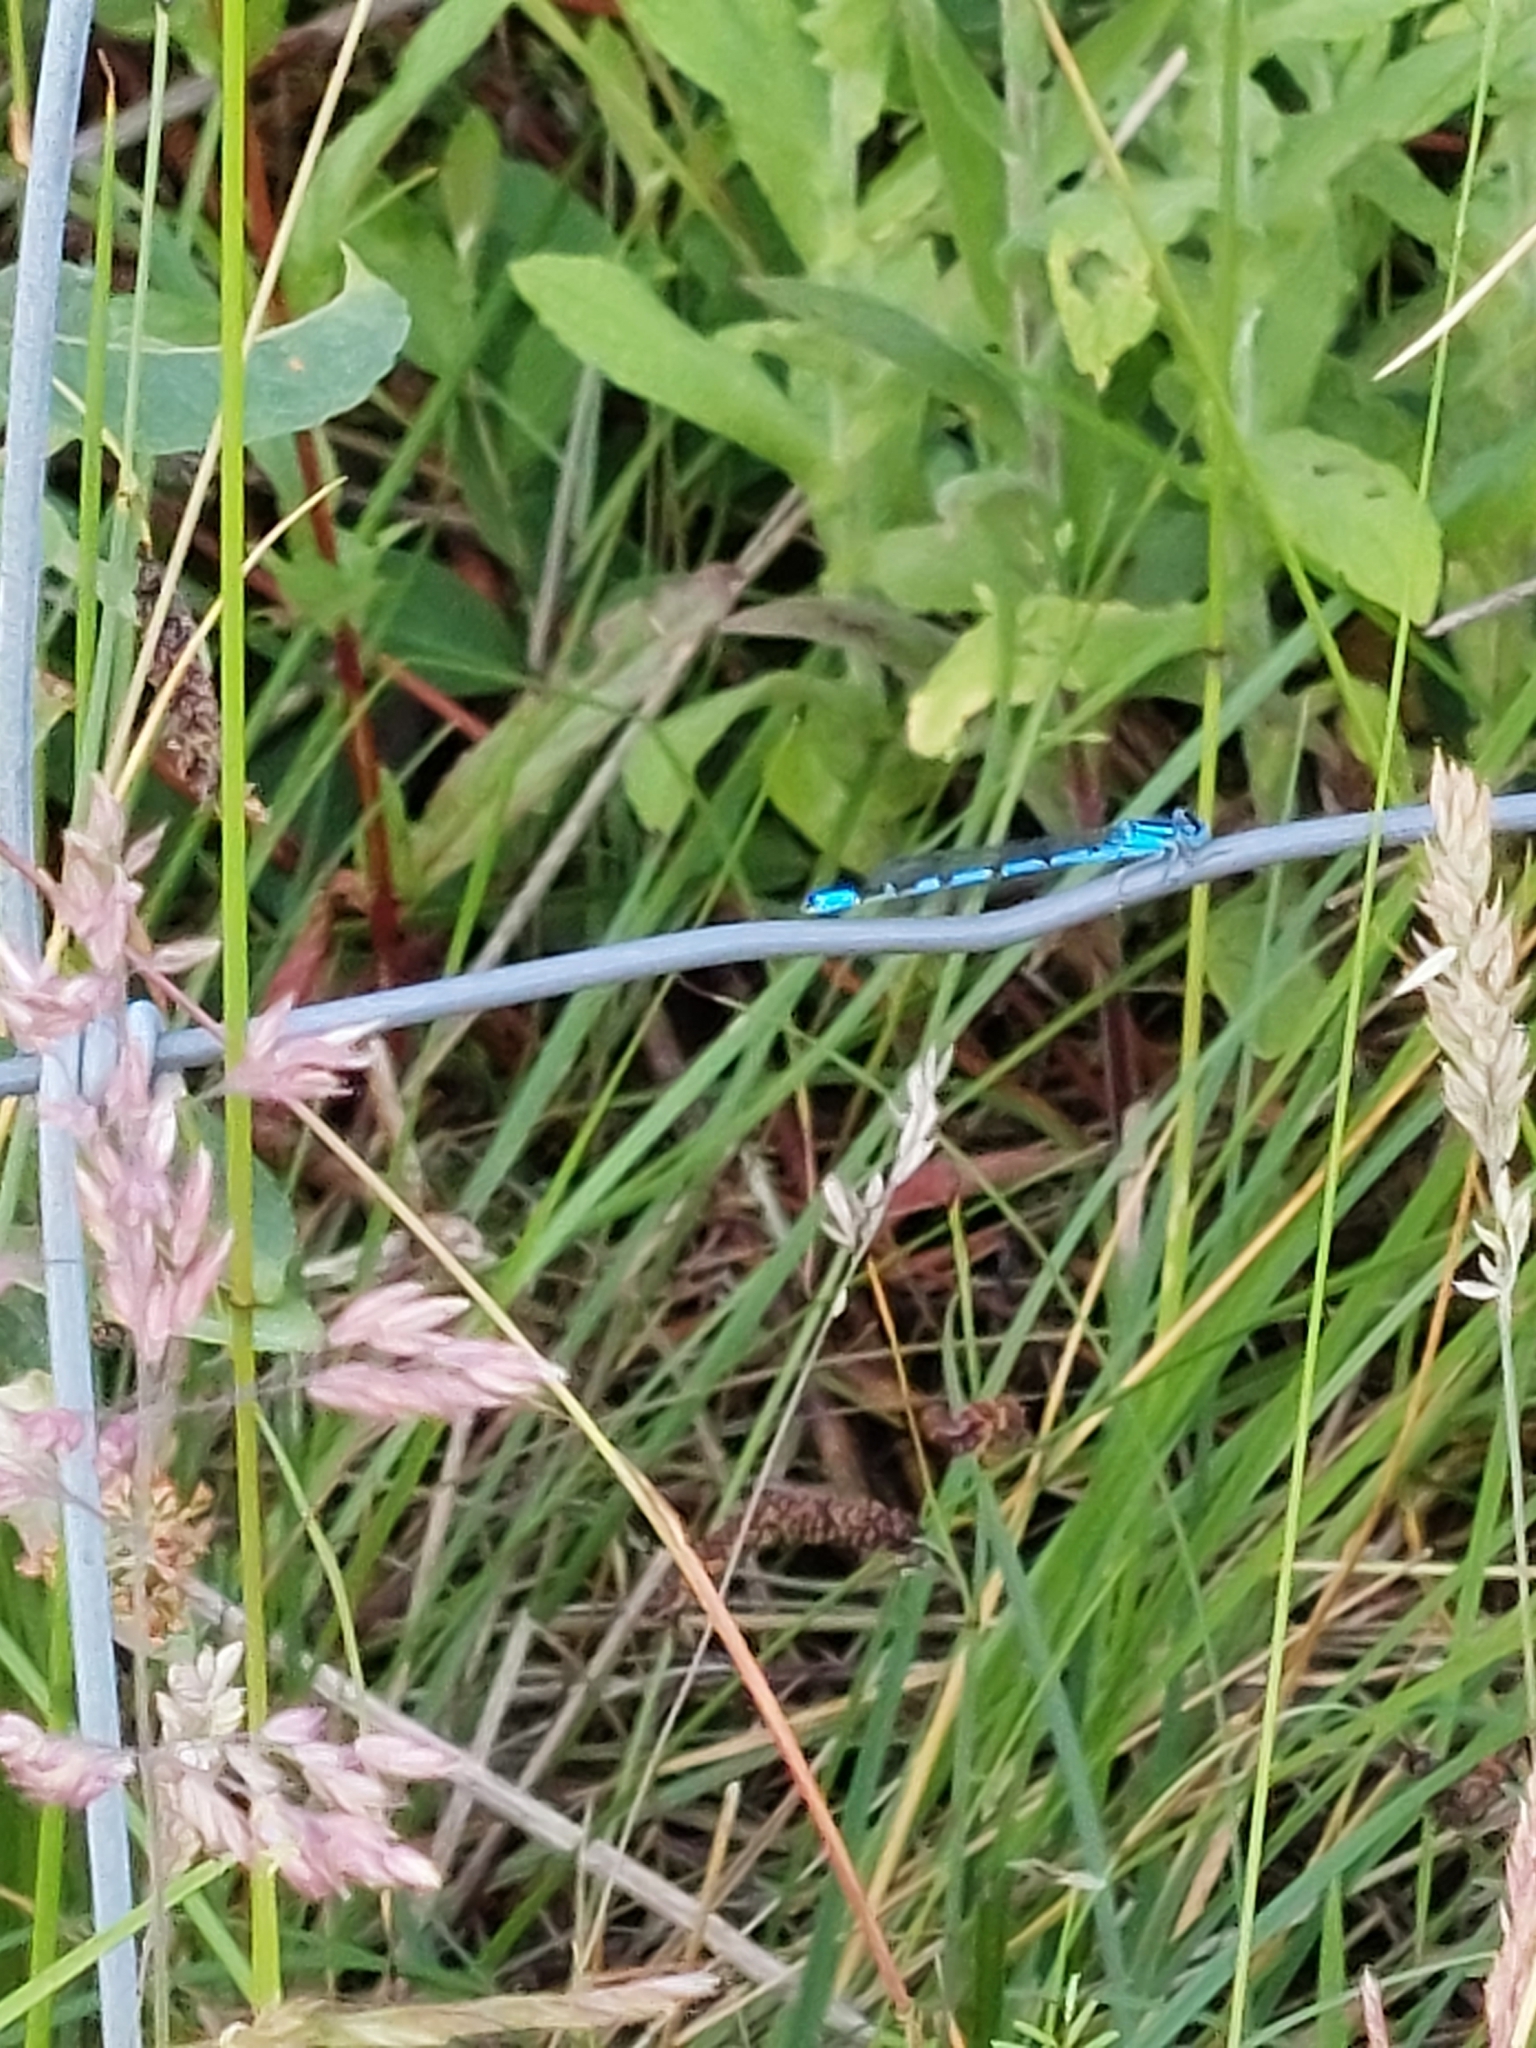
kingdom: Animalia
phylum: Arthropoda
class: Insecta
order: Odonata
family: Coenagrionidae
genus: Enallagma
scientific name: Enallagma cyathigerum
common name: Common blue damselfly
